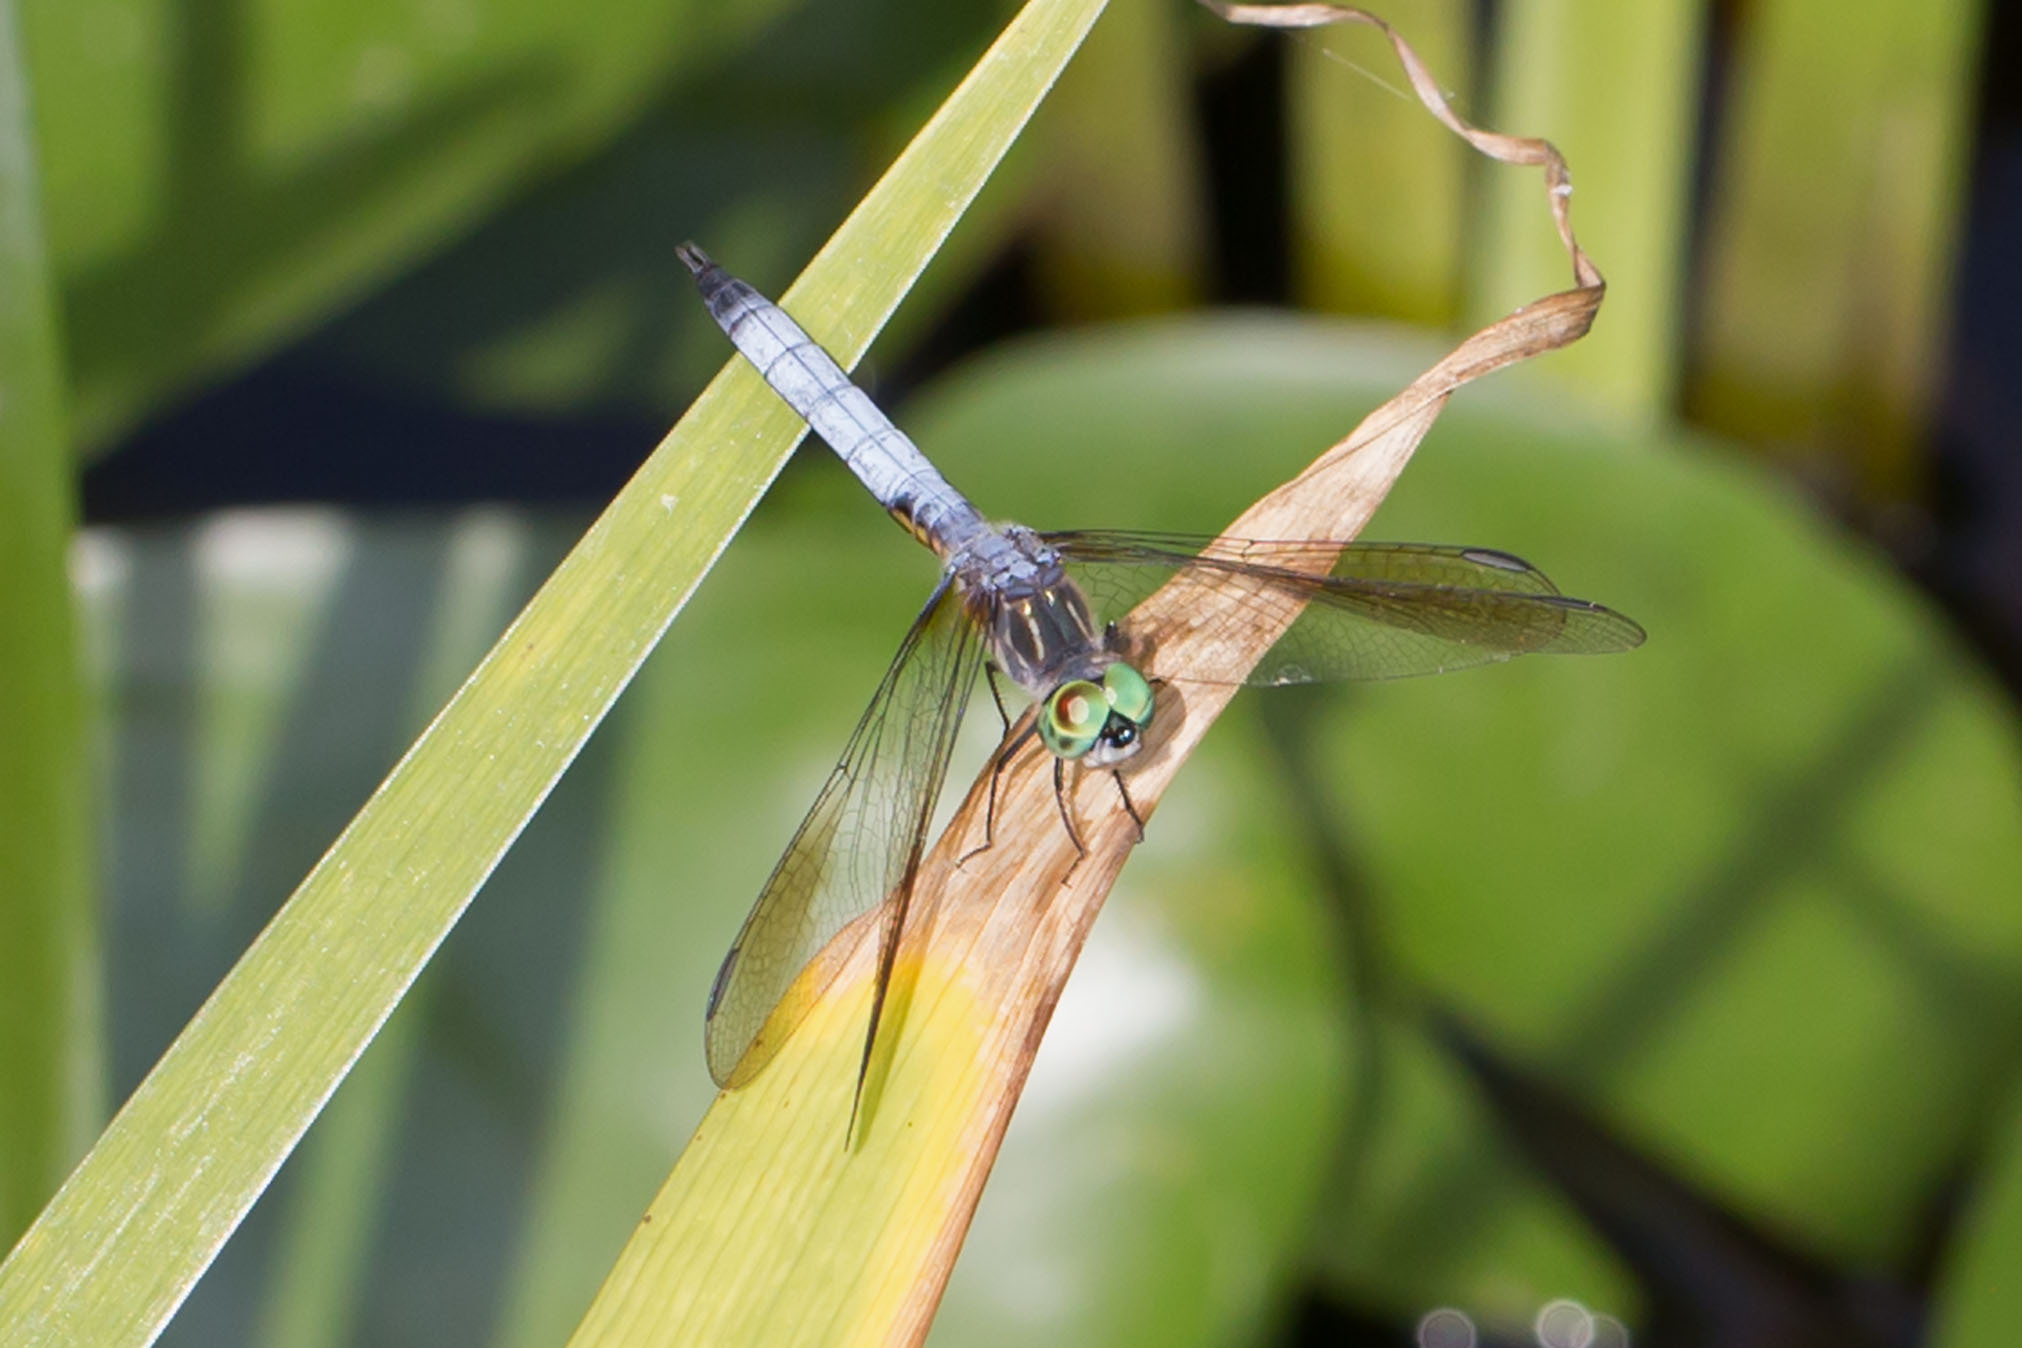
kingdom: Animalia
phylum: Arthropoda
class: Insecta
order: Odonata
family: Libellulidae
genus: Pachydiplax
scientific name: Pachydiplax longipennis
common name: Blue dasher
